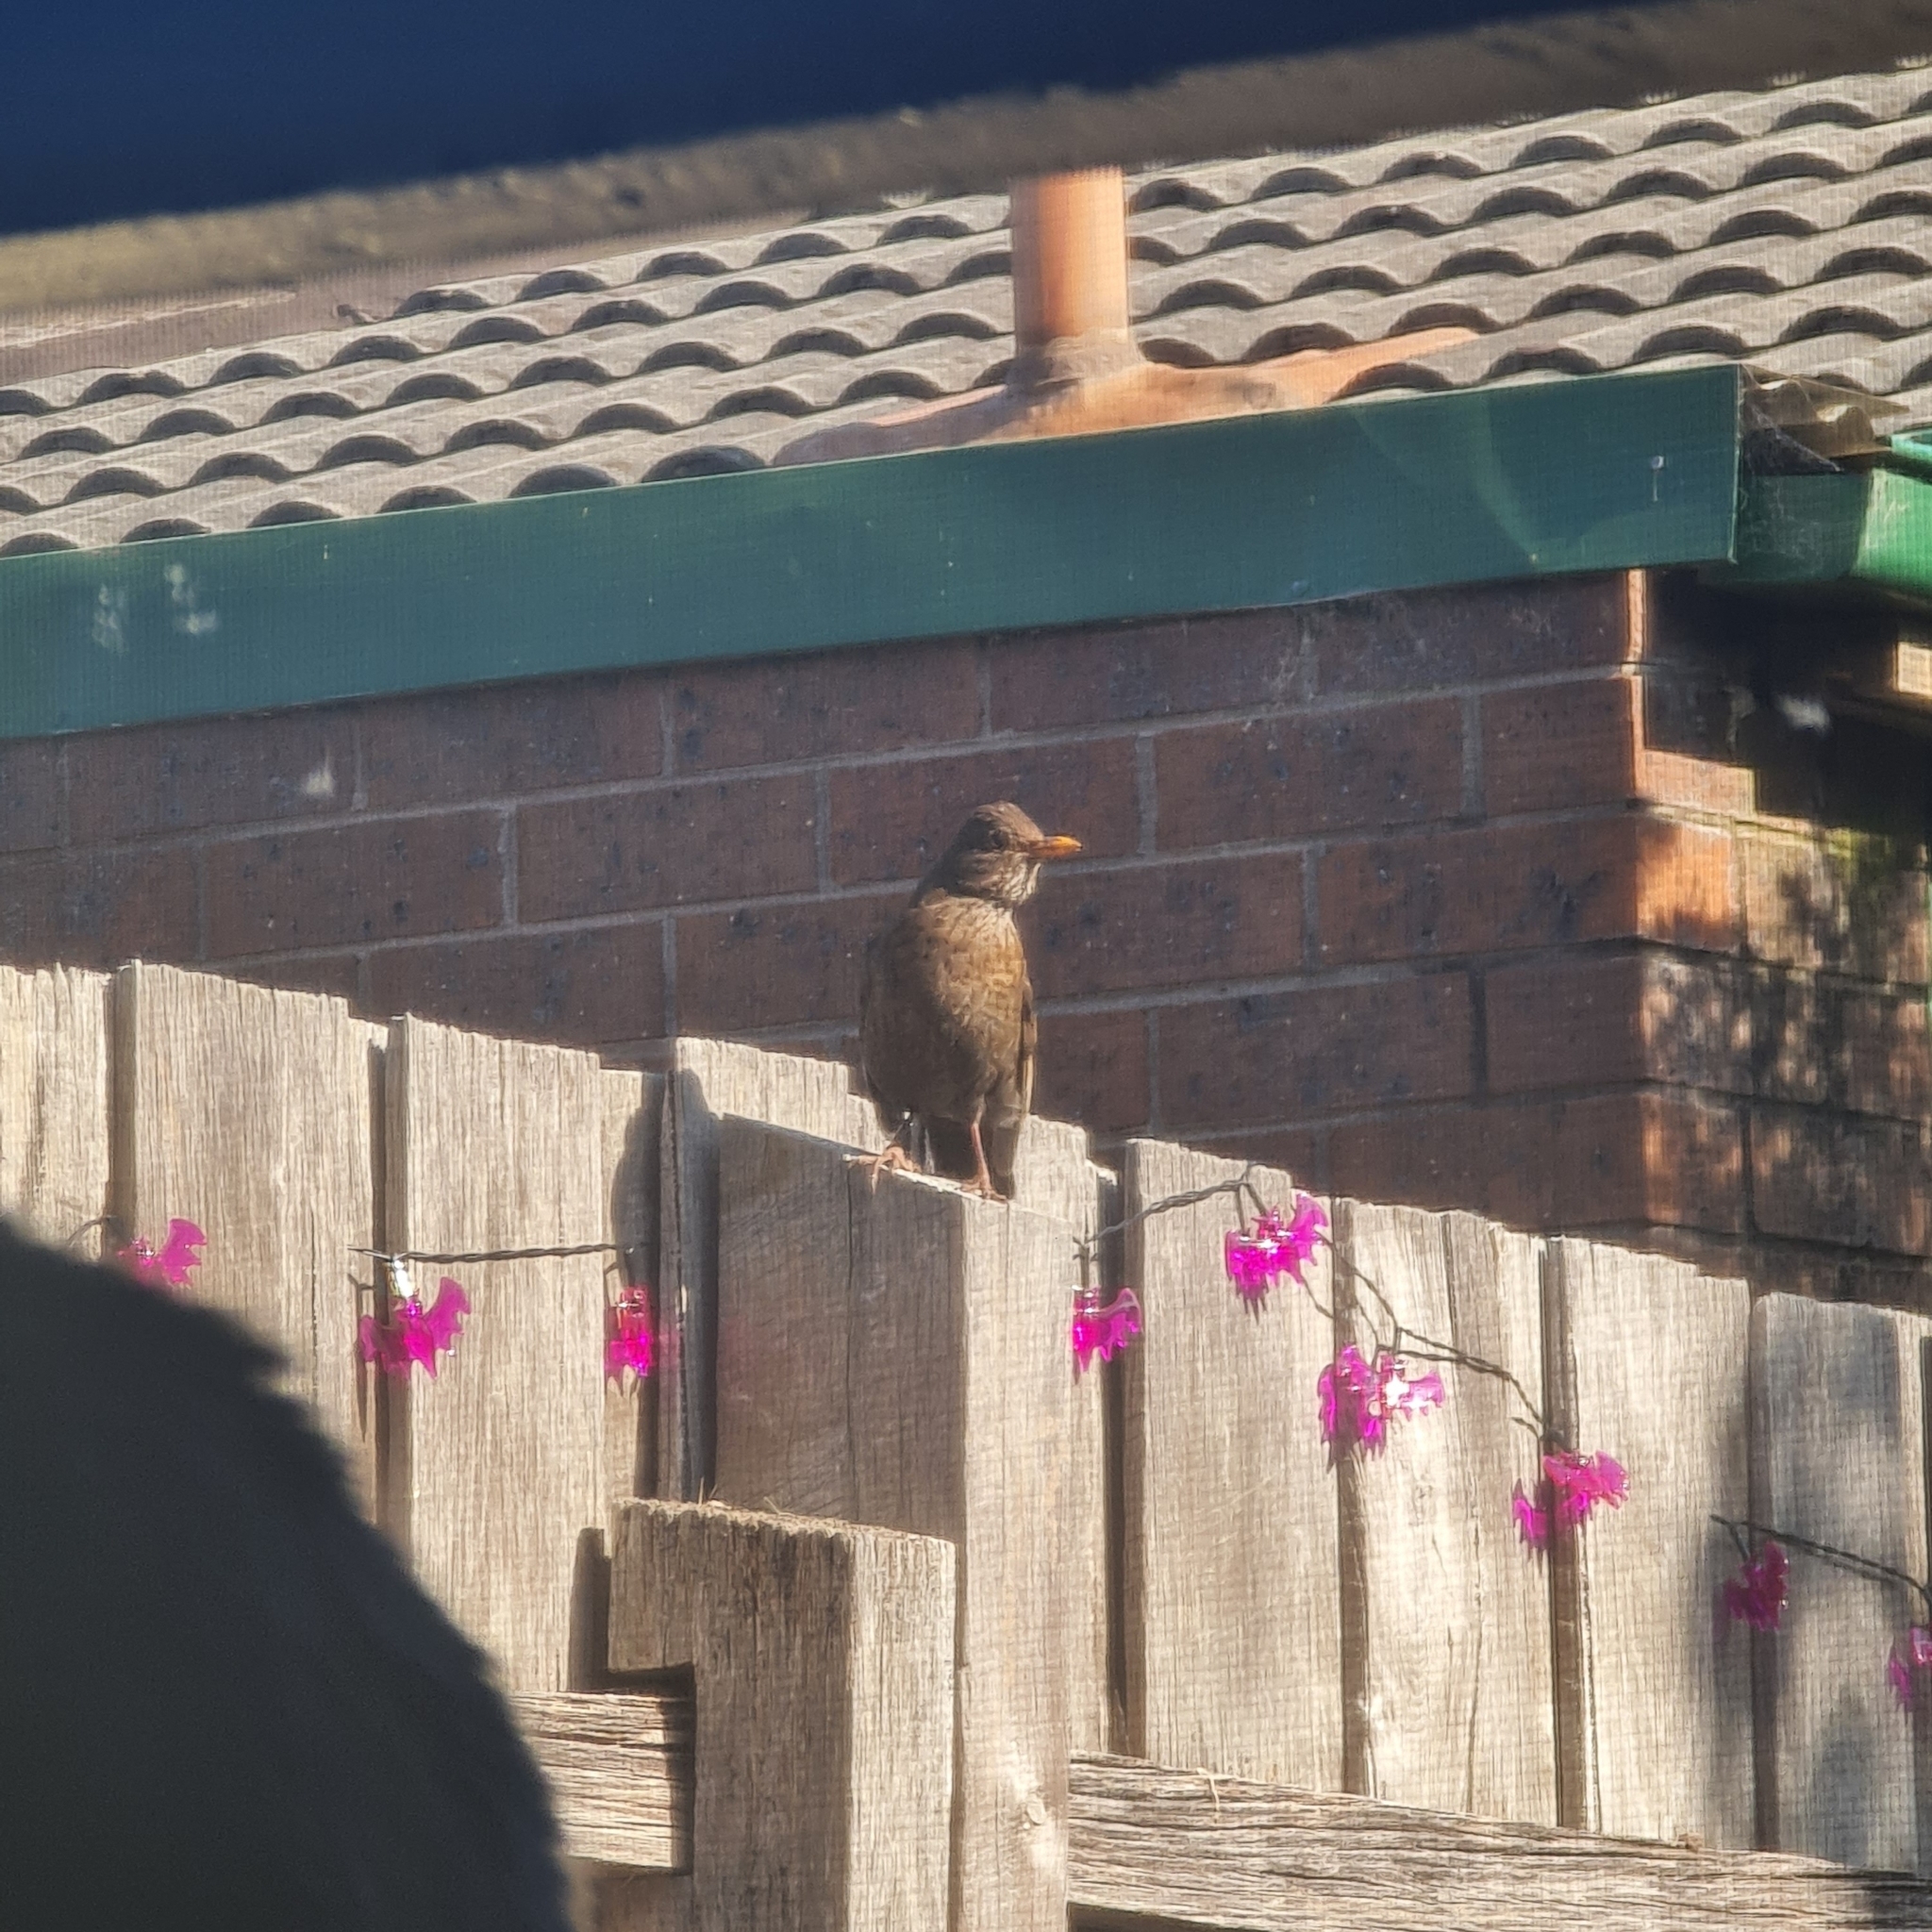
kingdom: Animalia
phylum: Chordata
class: Aves
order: Passeriformes
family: Turdidae
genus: Turdus
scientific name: Turdus merula
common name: Common blackbird
